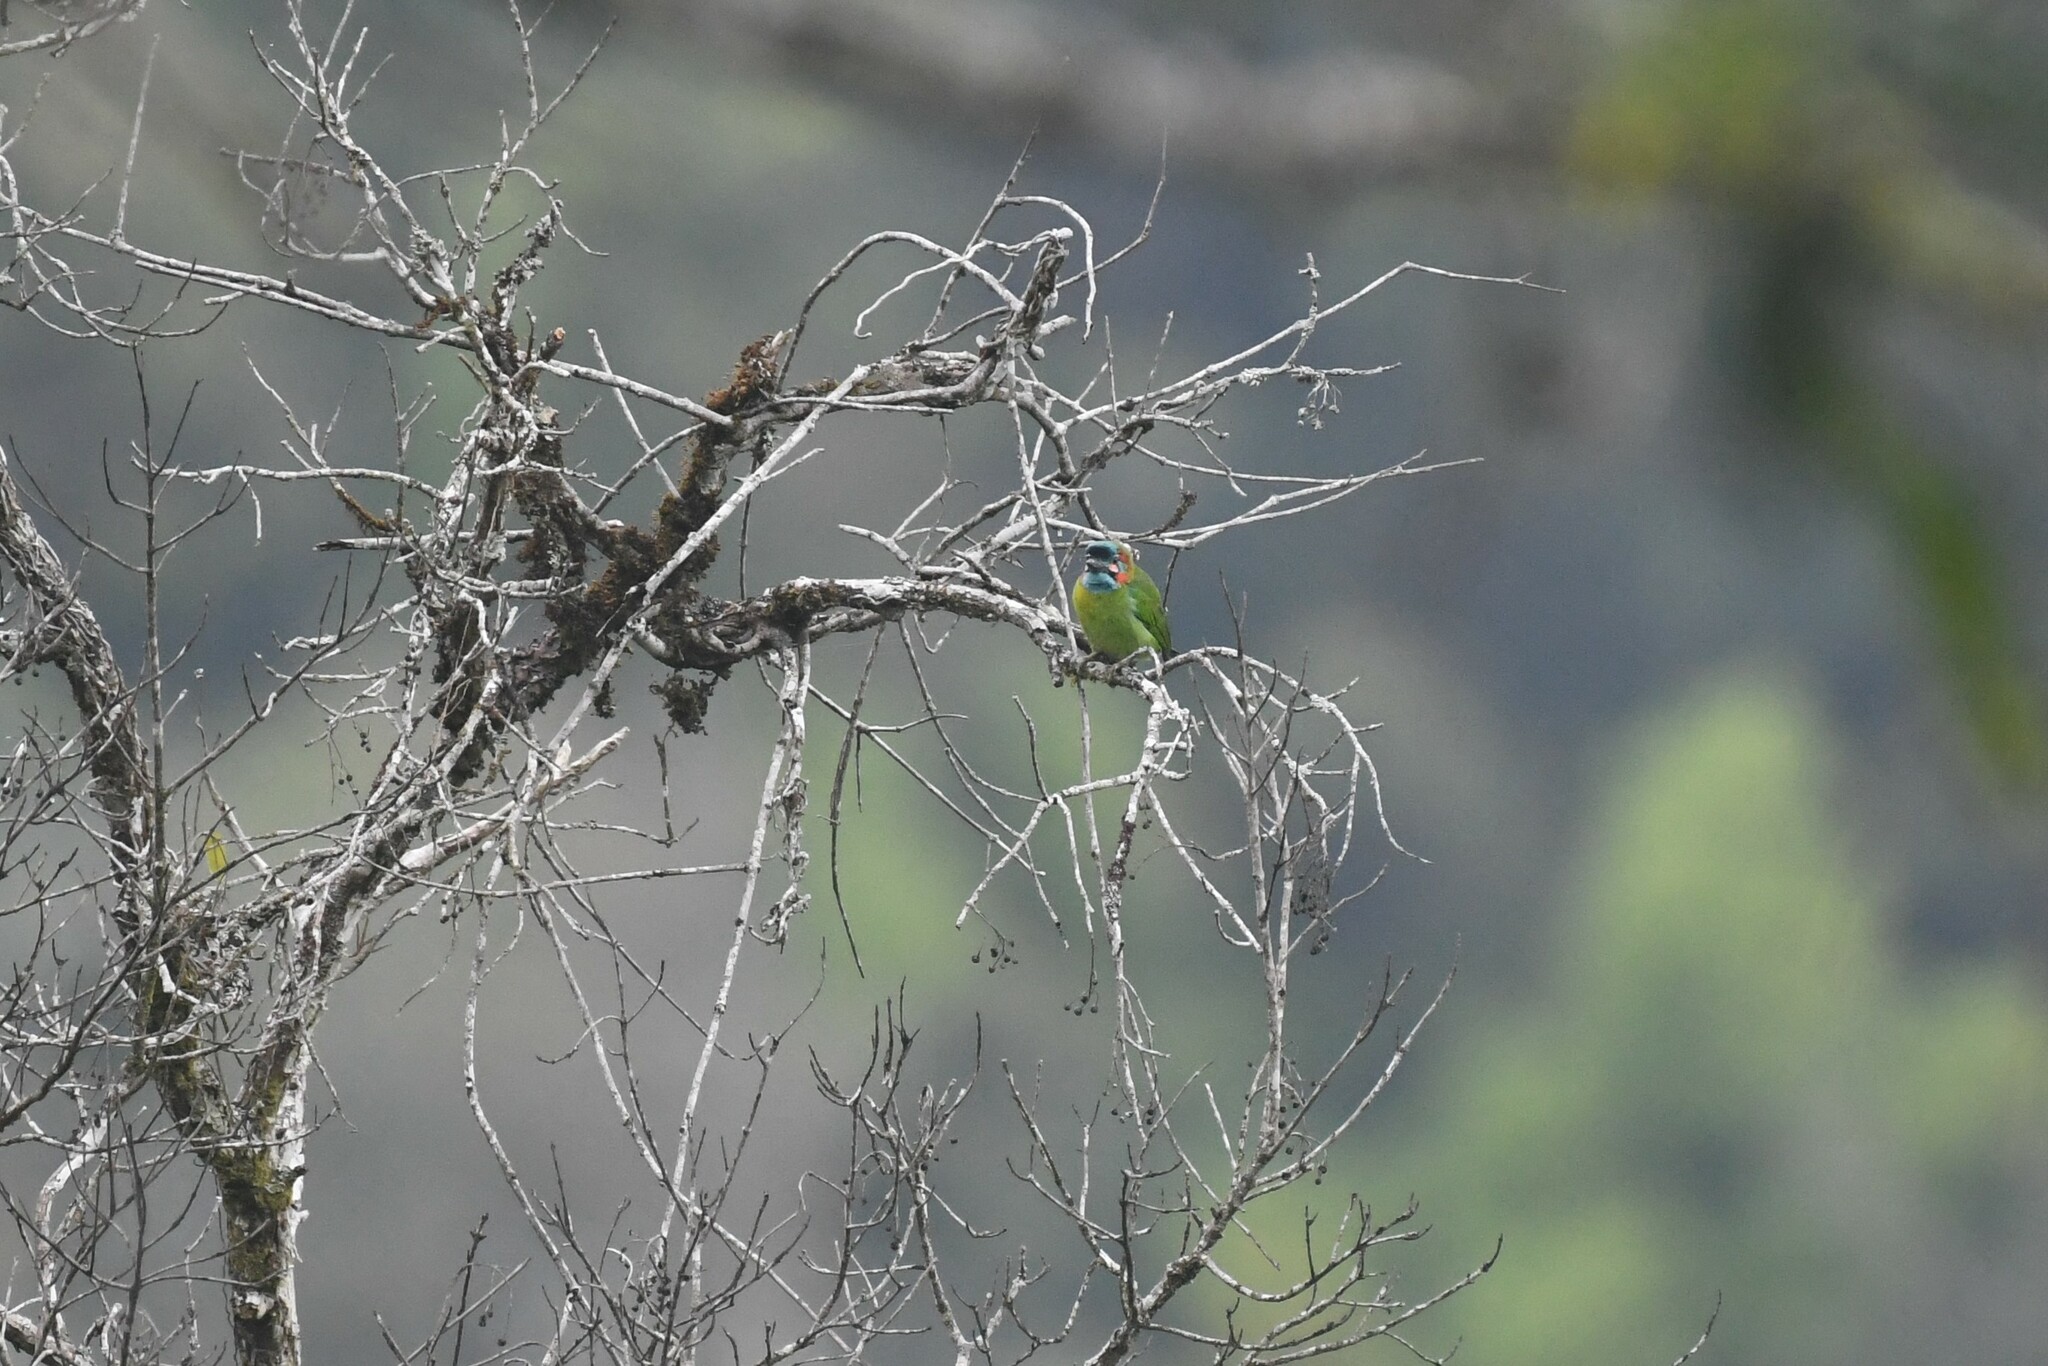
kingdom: Animalia
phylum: Chordata
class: Aves
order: Piciformes
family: Megalaimidae
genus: Psilopogon
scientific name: Psilopogon duvaucelii
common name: Blue-eared barbet
